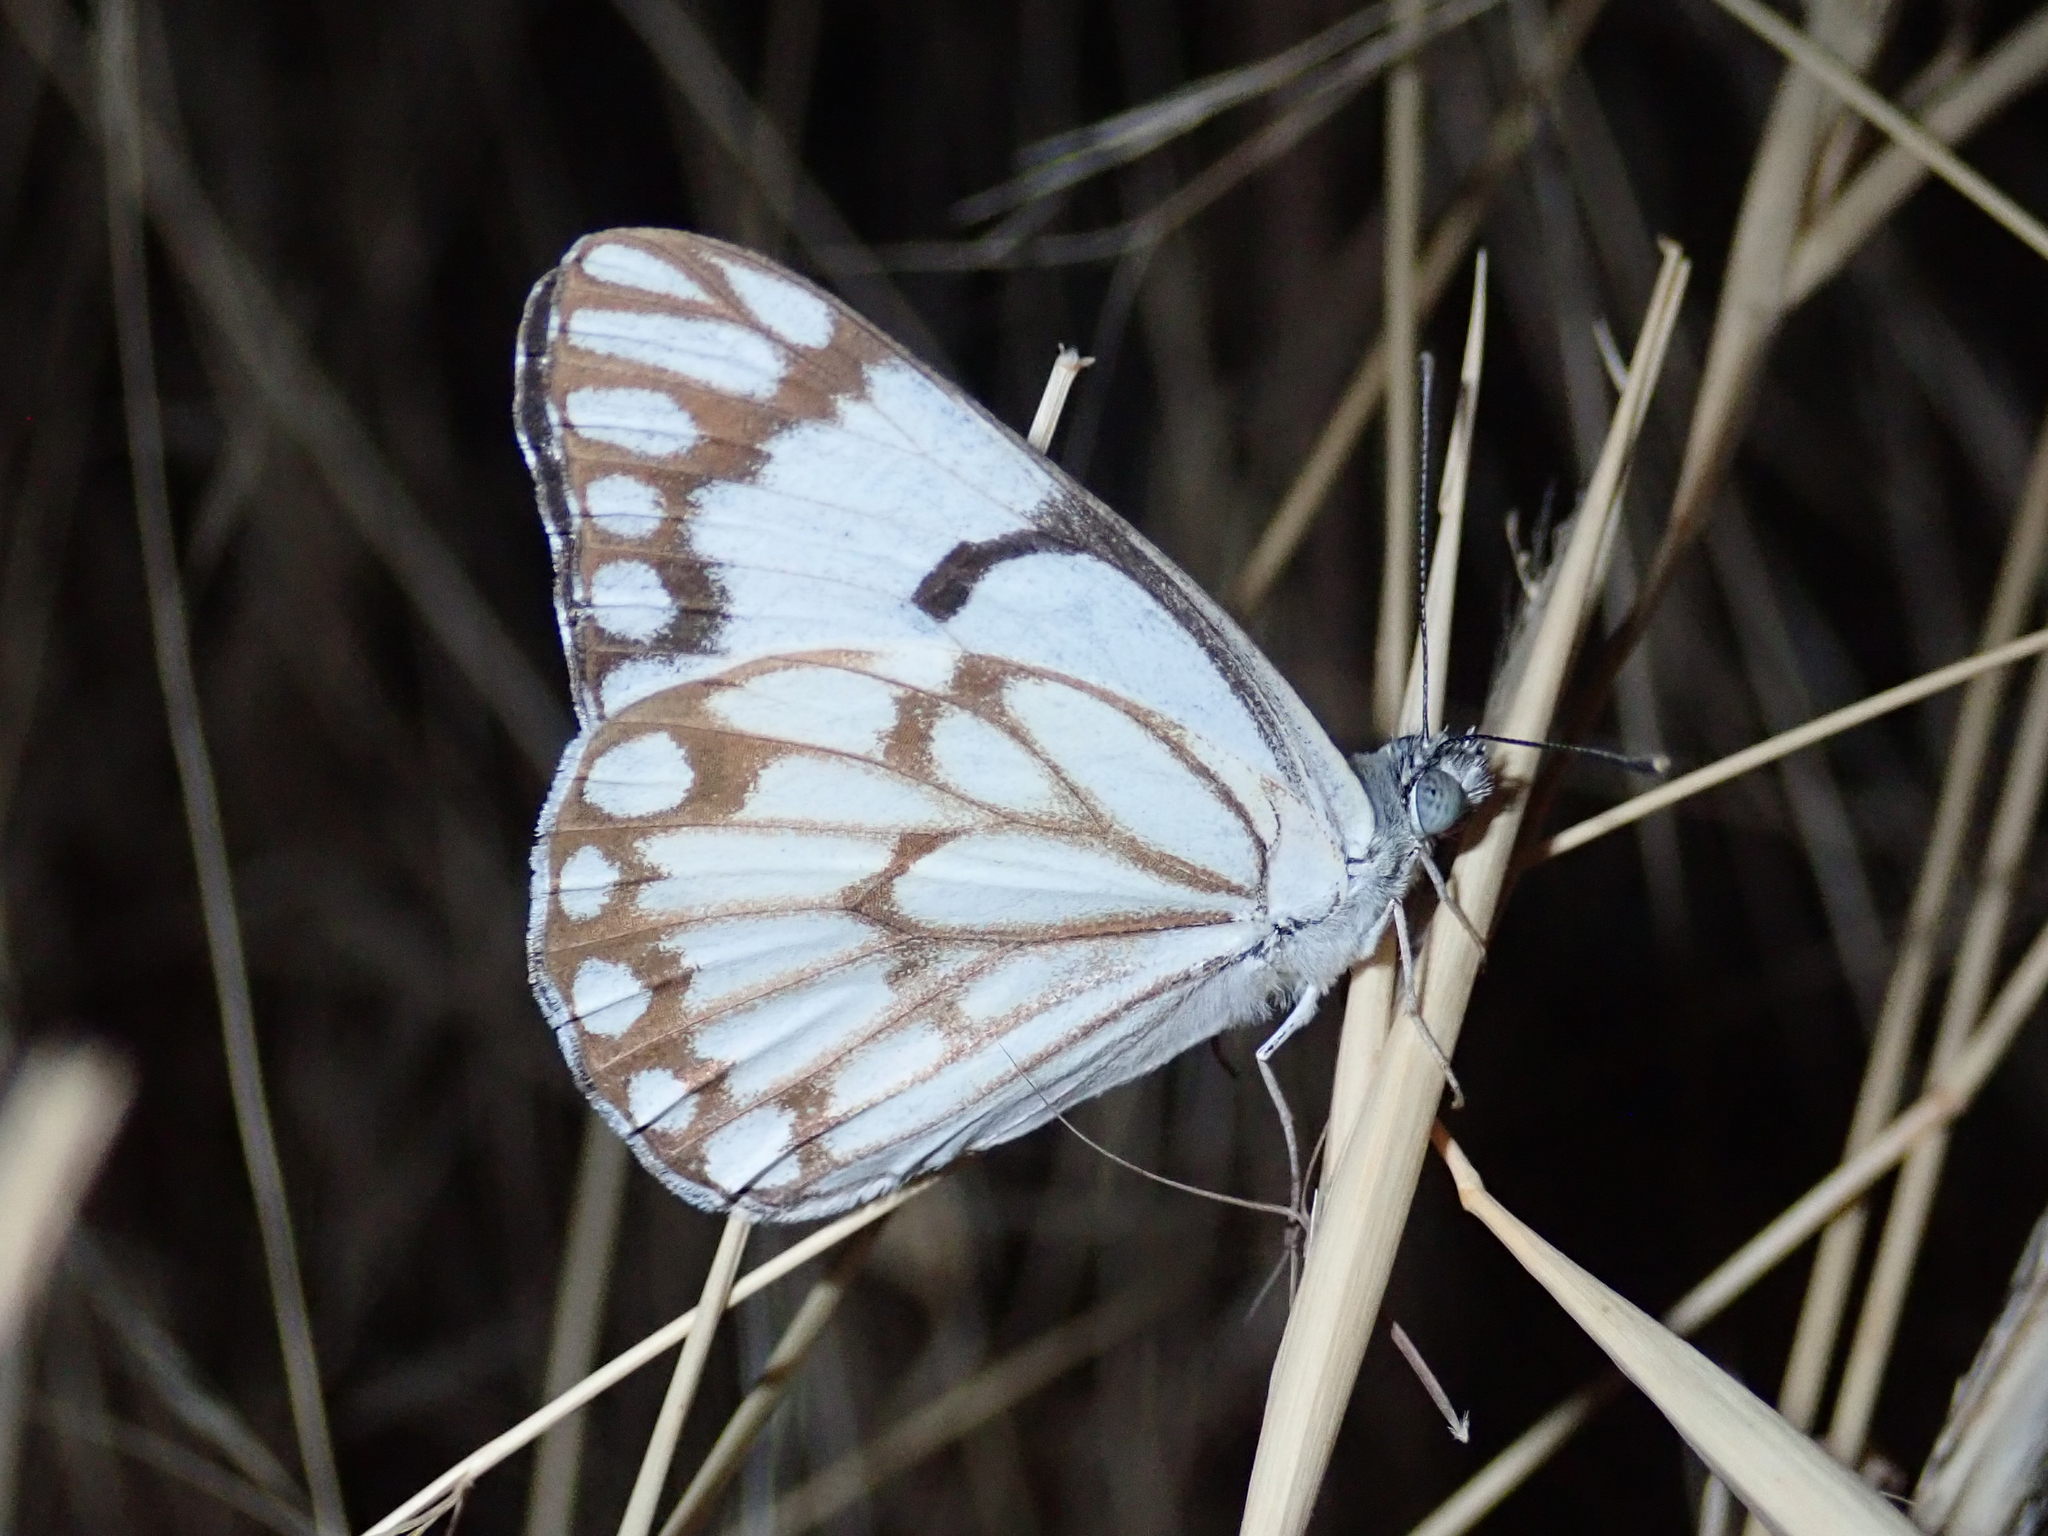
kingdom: Animalia
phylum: Arthropoda
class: Insecta
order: Lepidoptera
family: Pieridae
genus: Belenois
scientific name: Belenois aurota
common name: Brown-veined white
